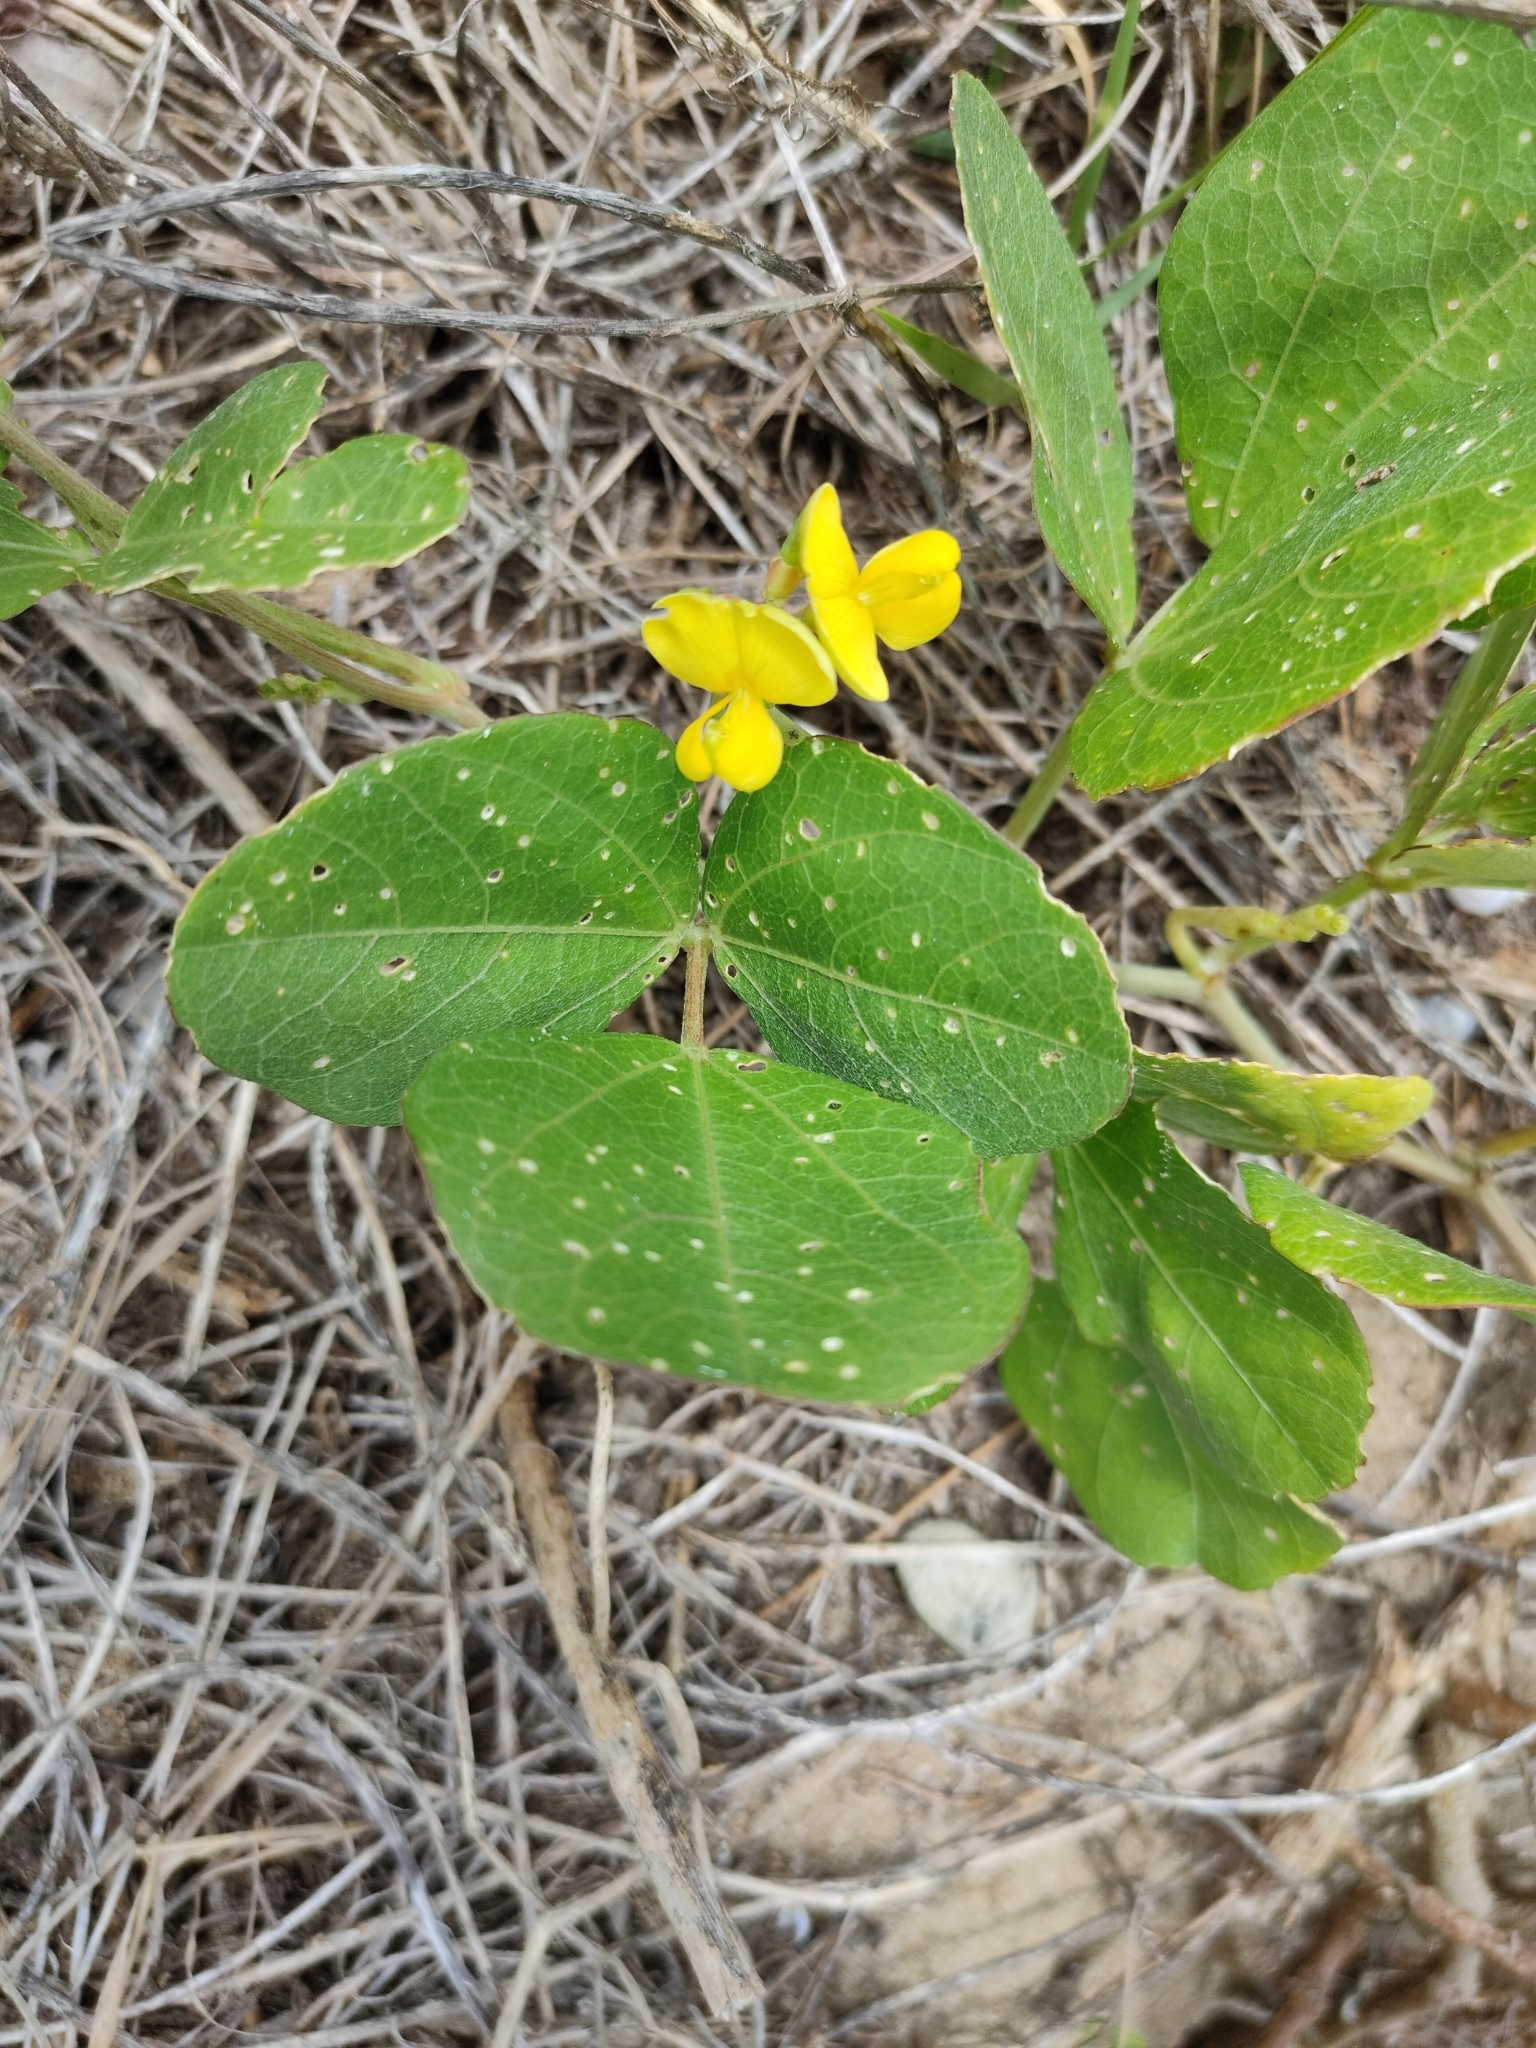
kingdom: Plantae
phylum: Tracheophyta
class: Magnoliopsida
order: Fabales
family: Fabaceae
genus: Vigna
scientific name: Vigna marina
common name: Dune-bean
